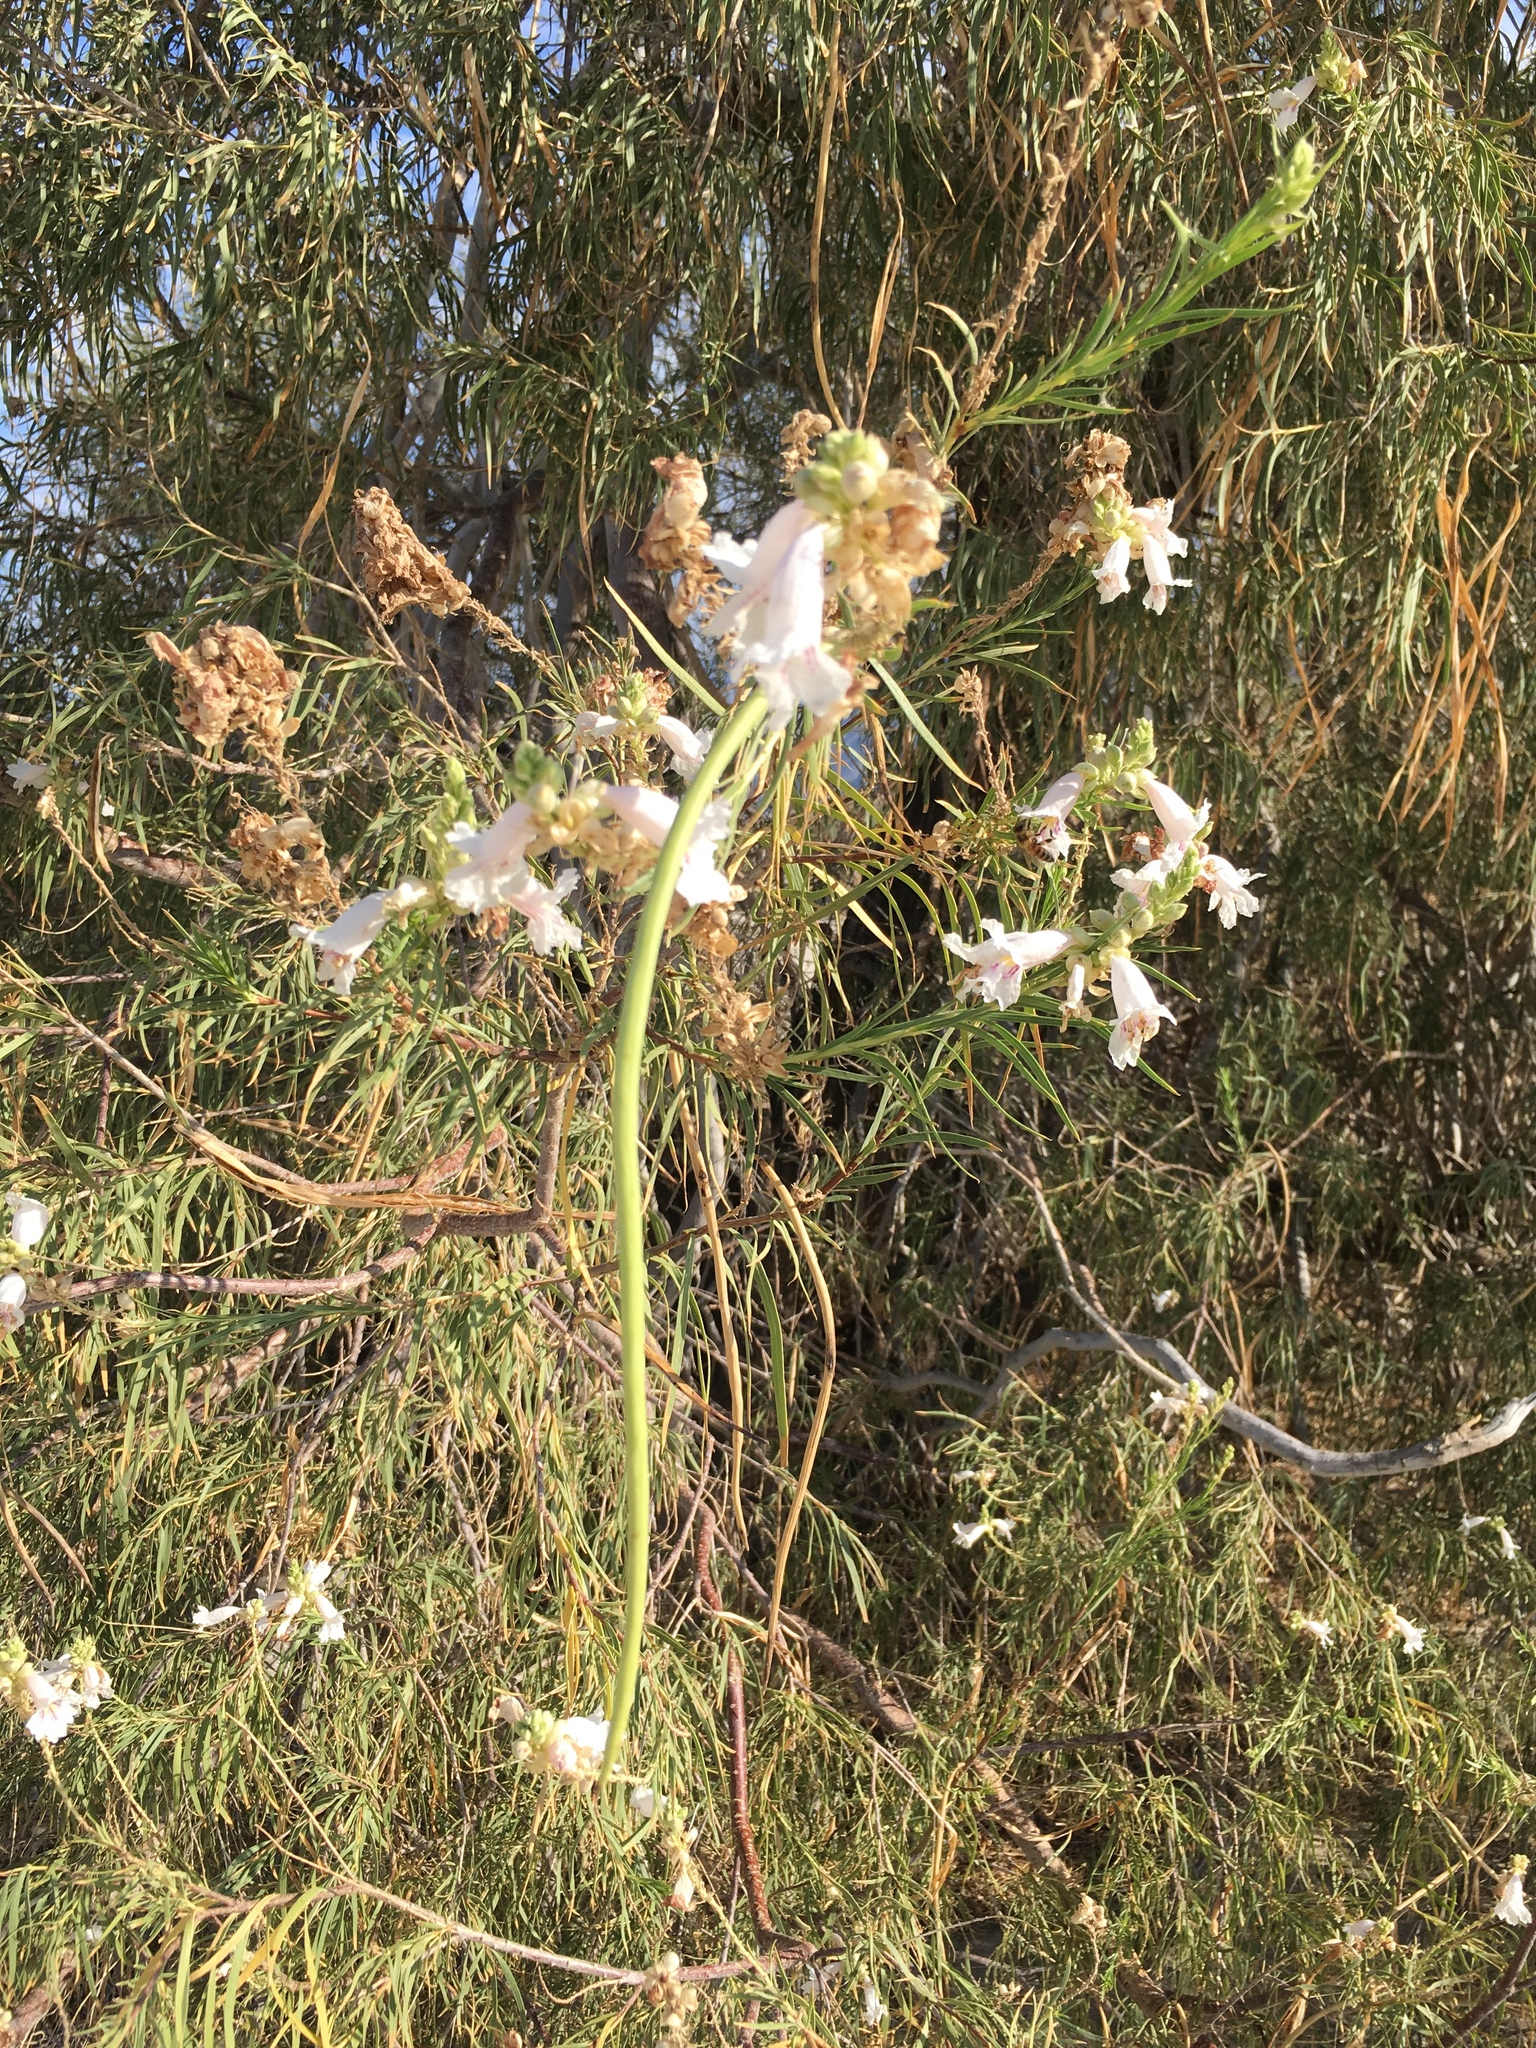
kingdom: Plantae
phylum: Tracheophyta
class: Magnoliopsida
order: Lamiales
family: Bignoniaceae
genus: Chilopsis
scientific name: Chilopsis linearis
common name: Desert-willow
